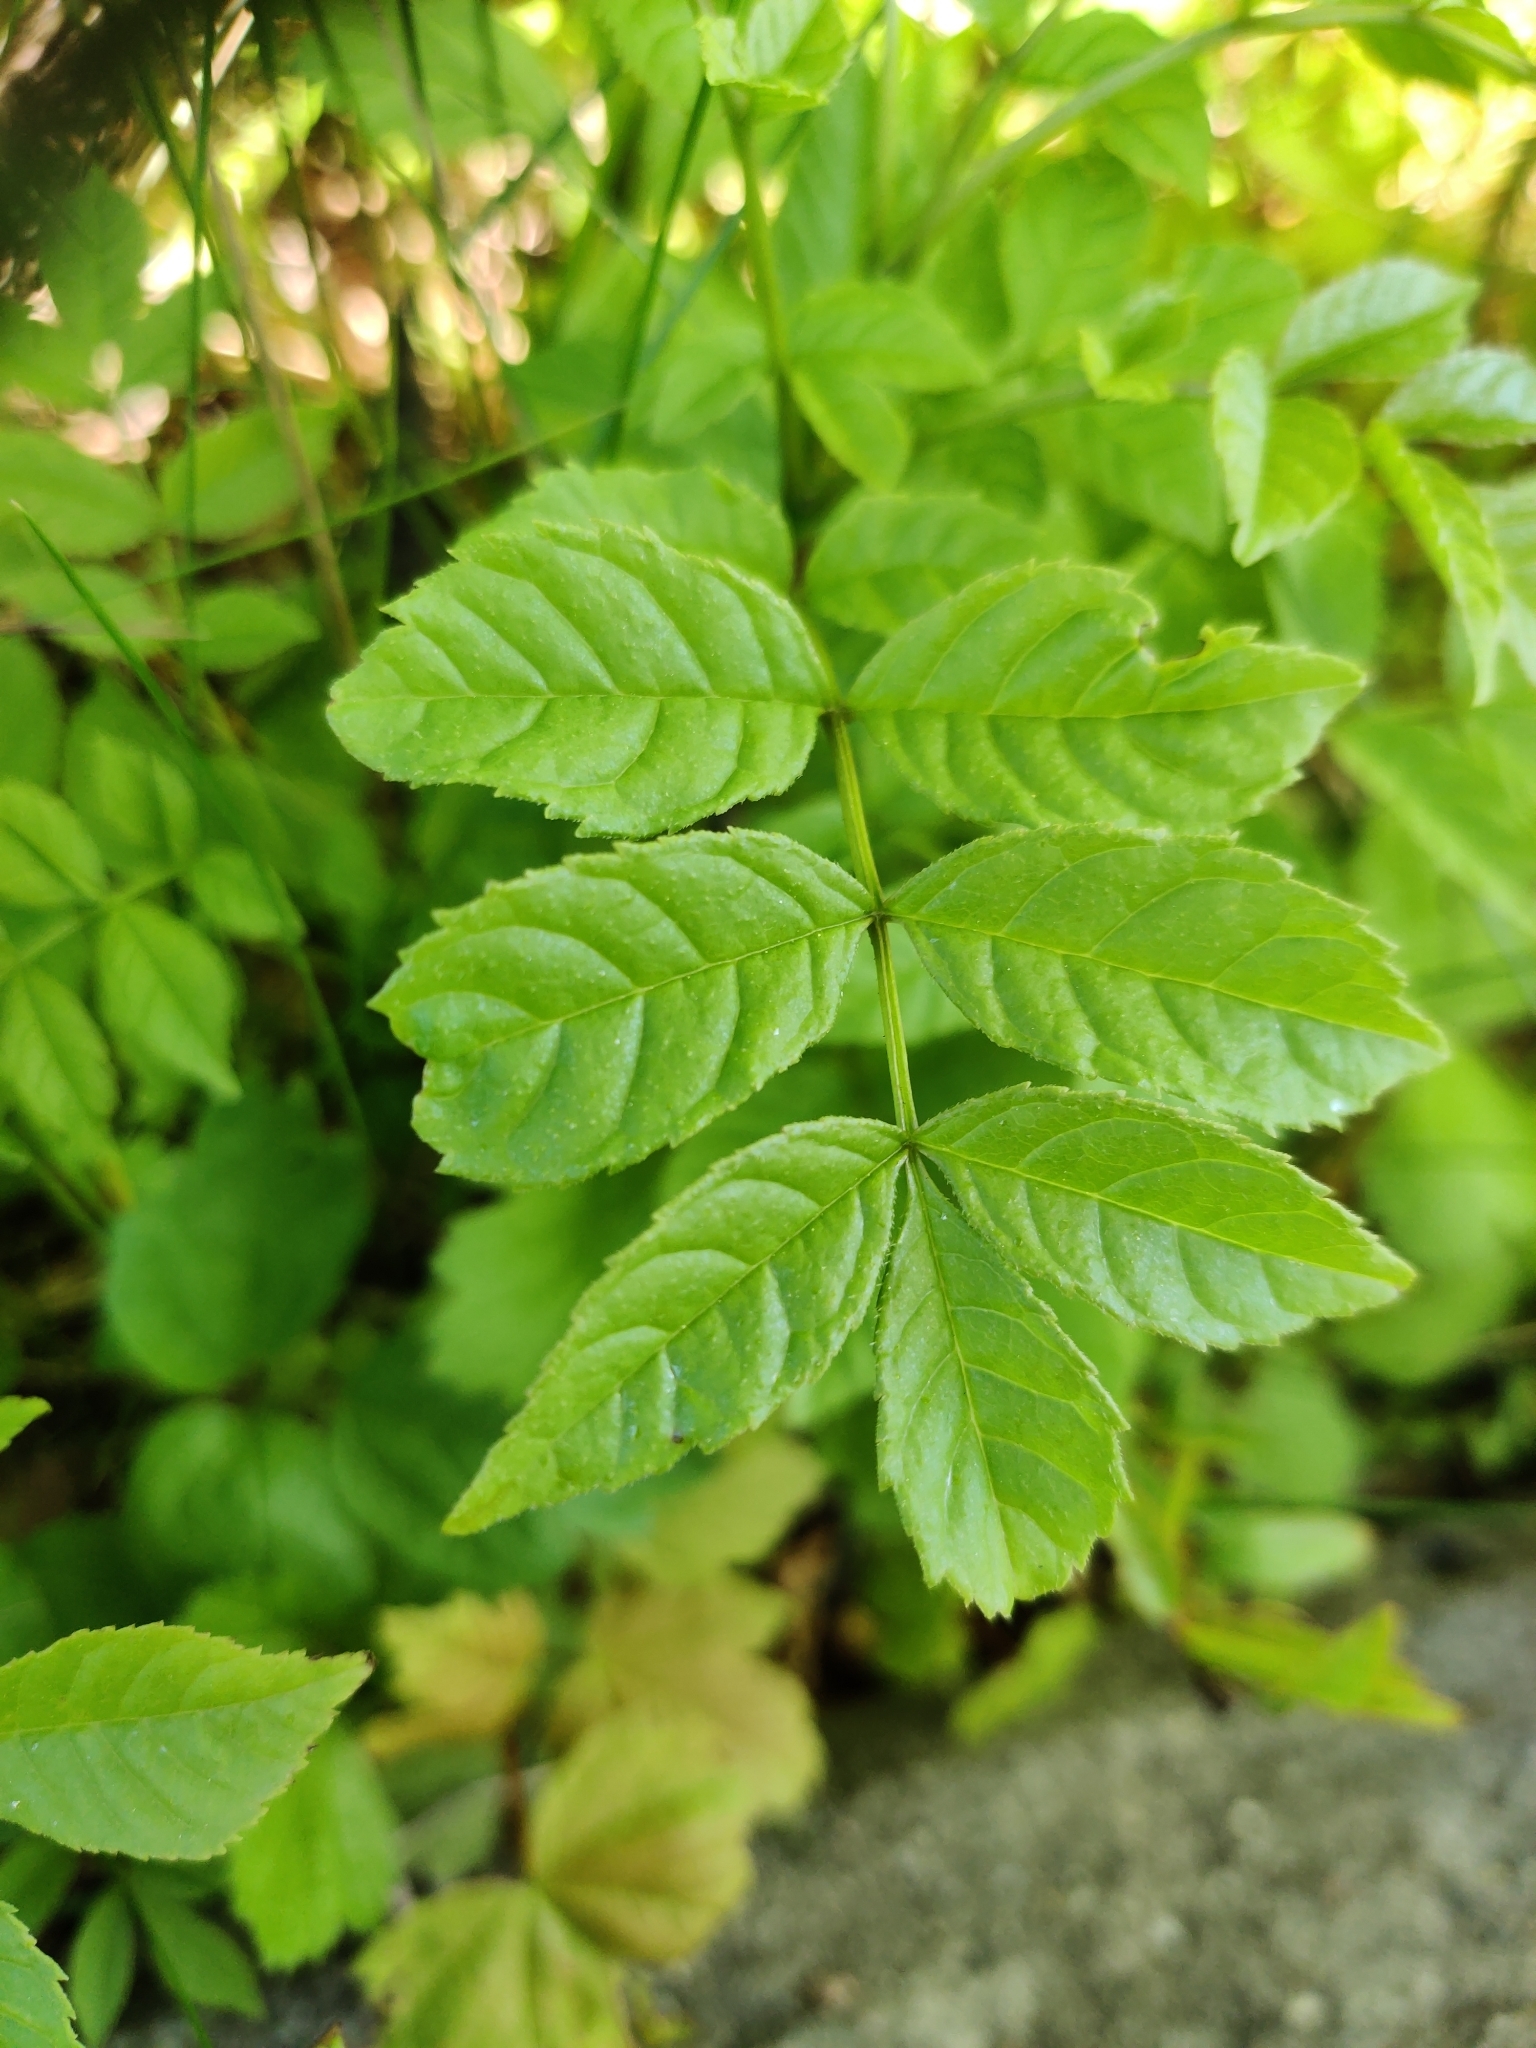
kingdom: Plantae
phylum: Tracheophyta
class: Magnoliopsida
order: Lamiales
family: Oleaceae
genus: Fraxinus
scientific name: Fraxinus excelsior
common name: European ash
